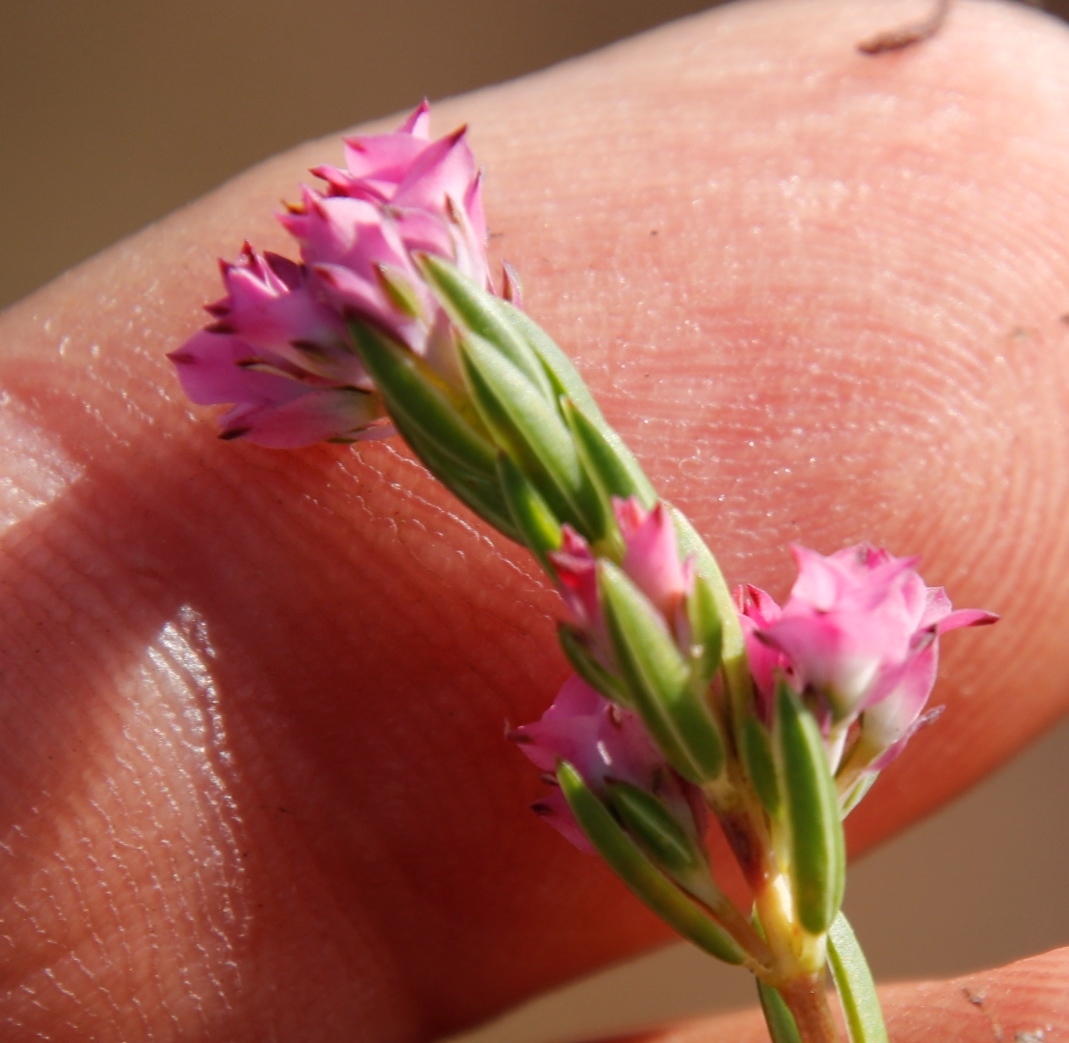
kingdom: Plantae
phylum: Tracheophyta
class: Magnoliopsida
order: Ericales
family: Ericaceae
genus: Erica
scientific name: Erica corifolia
